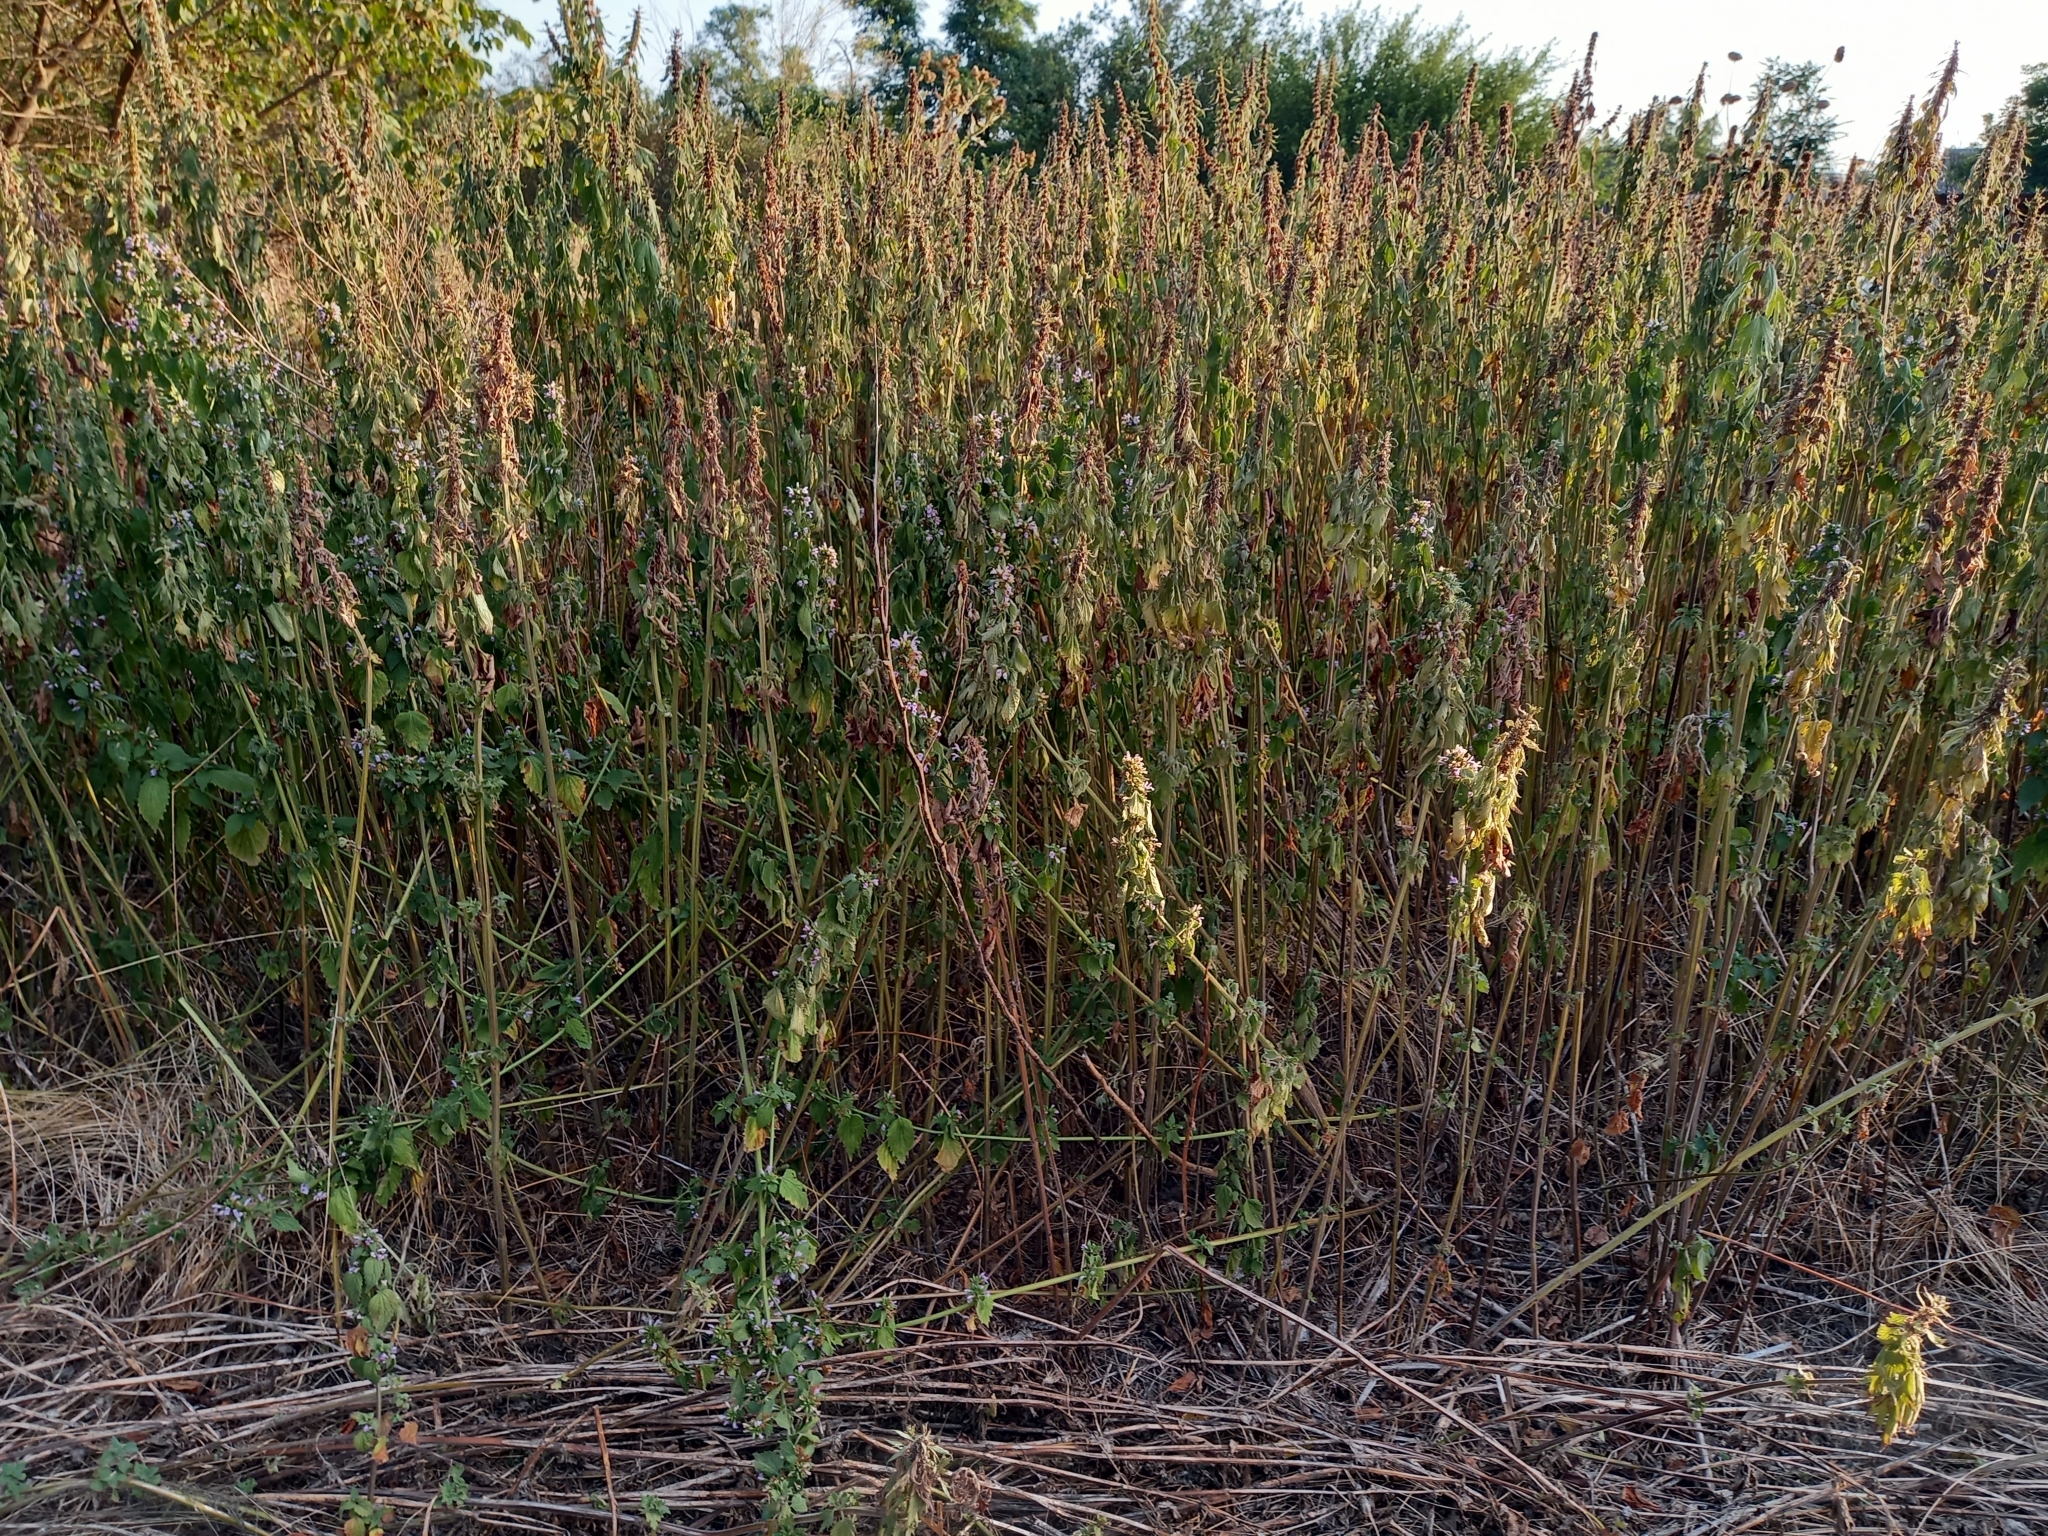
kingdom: Plantae
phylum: Tracheophyta
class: Magnoliopsida
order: Lamiales
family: Lamiaceae
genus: Leonurus
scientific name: Leonurus quinquelobatus
